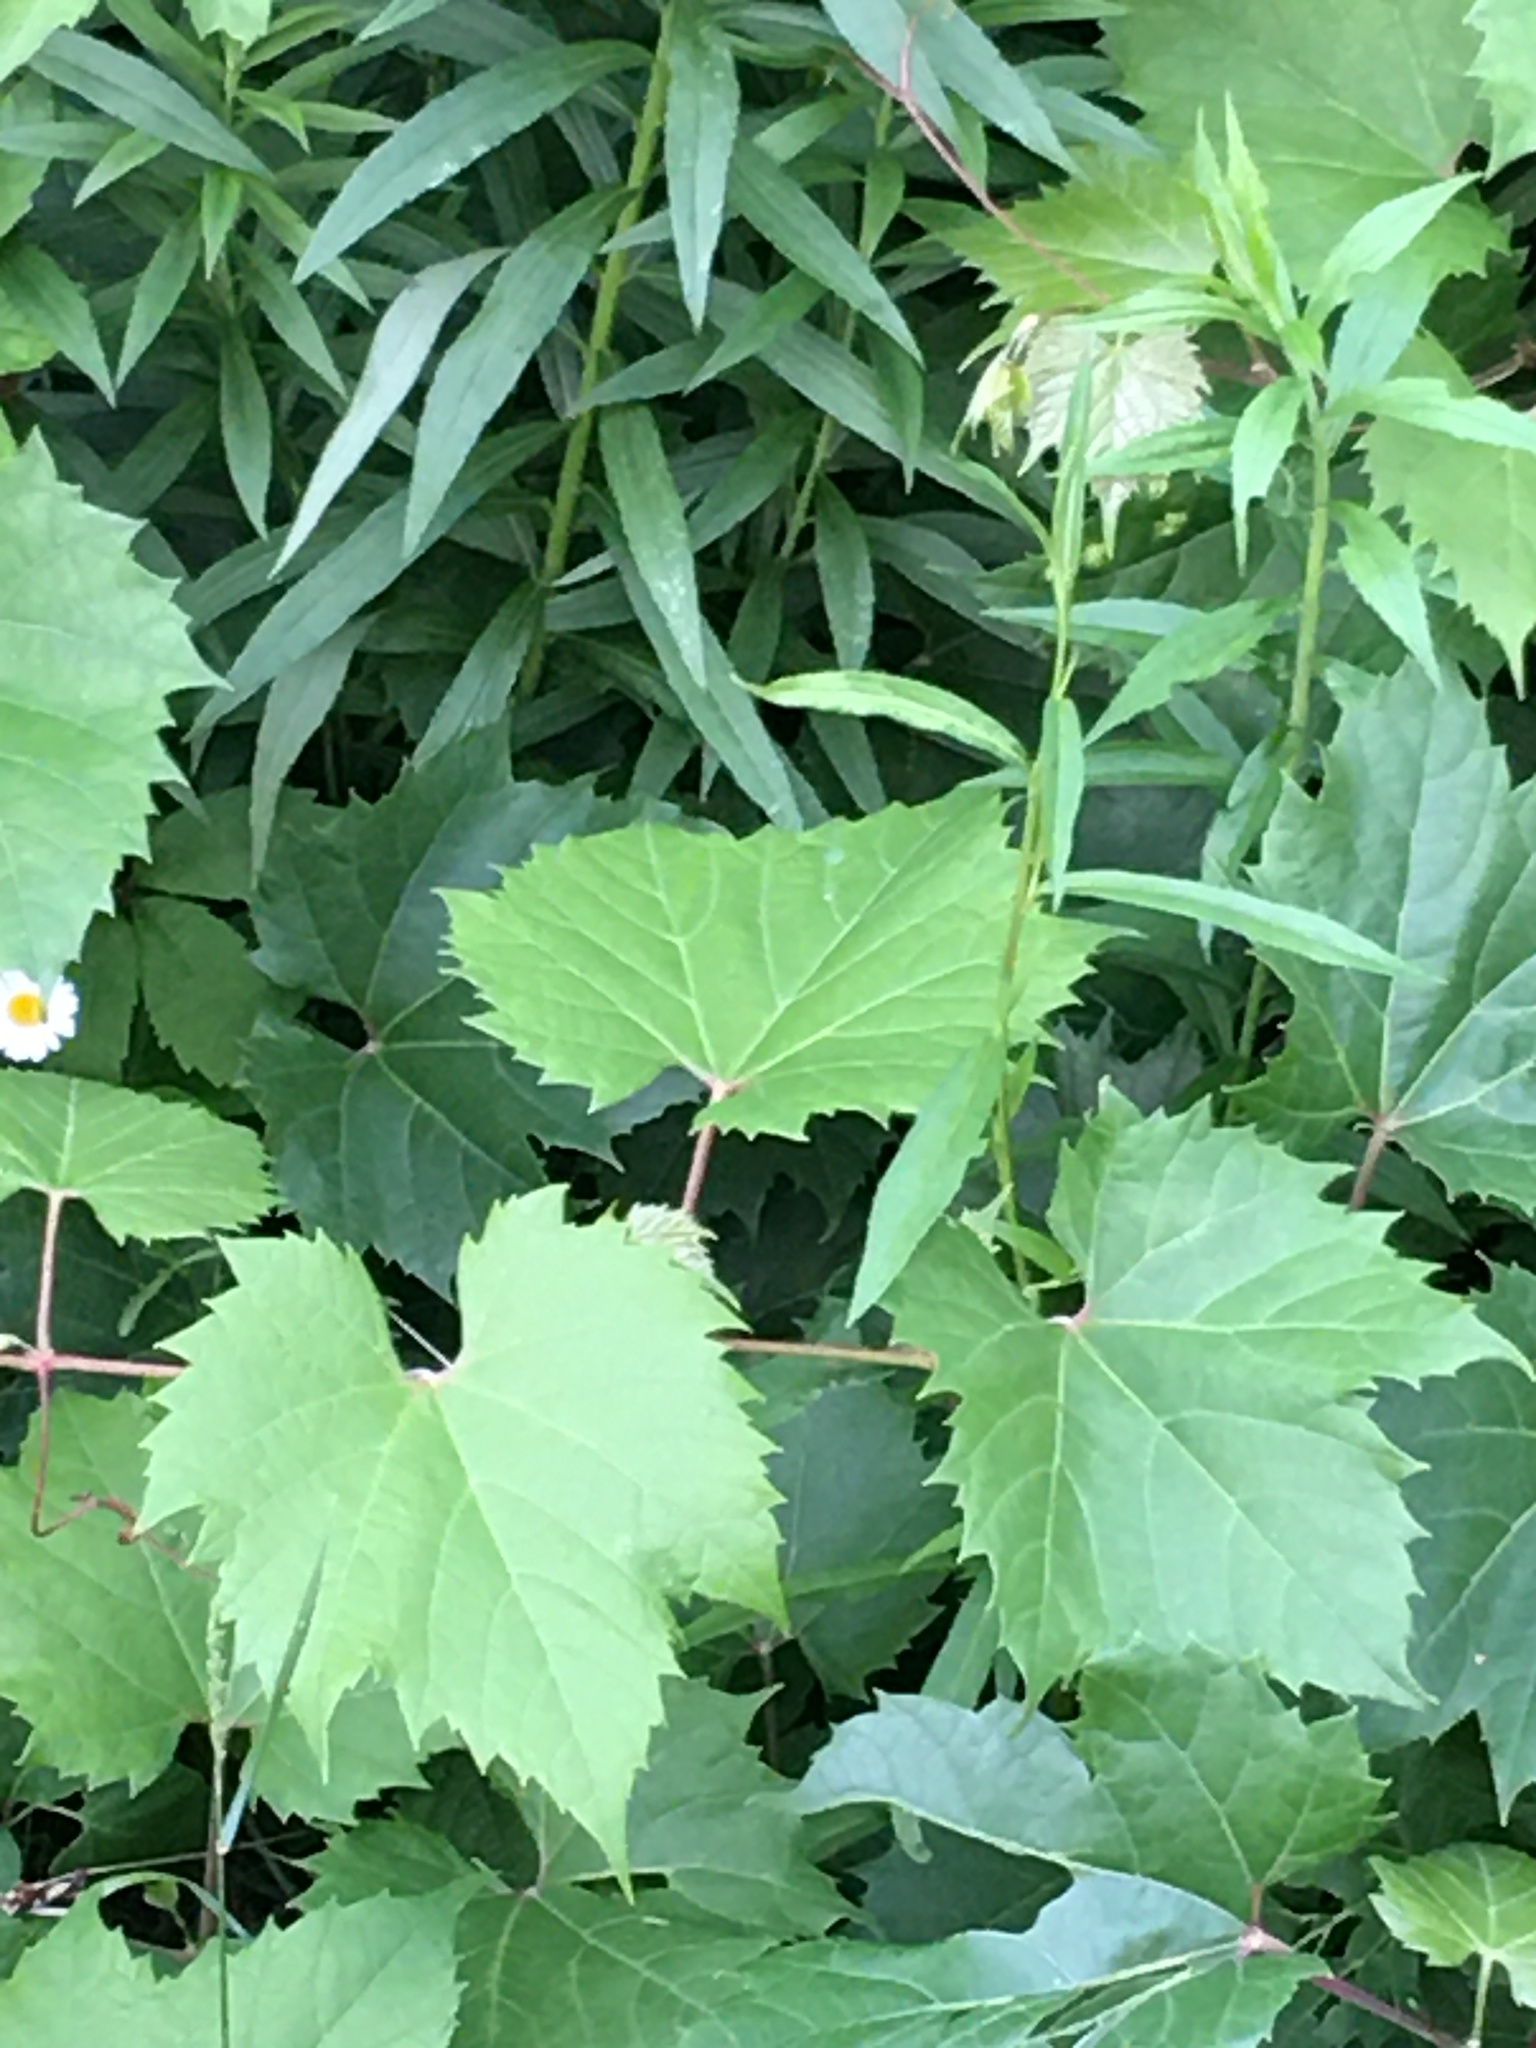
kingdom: Plantae
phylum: Tracheophyta
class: Magnoliopsida
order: Vitales
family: Vitaceae
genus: Vitis
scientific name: Vitis riparia
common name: Frost grape
